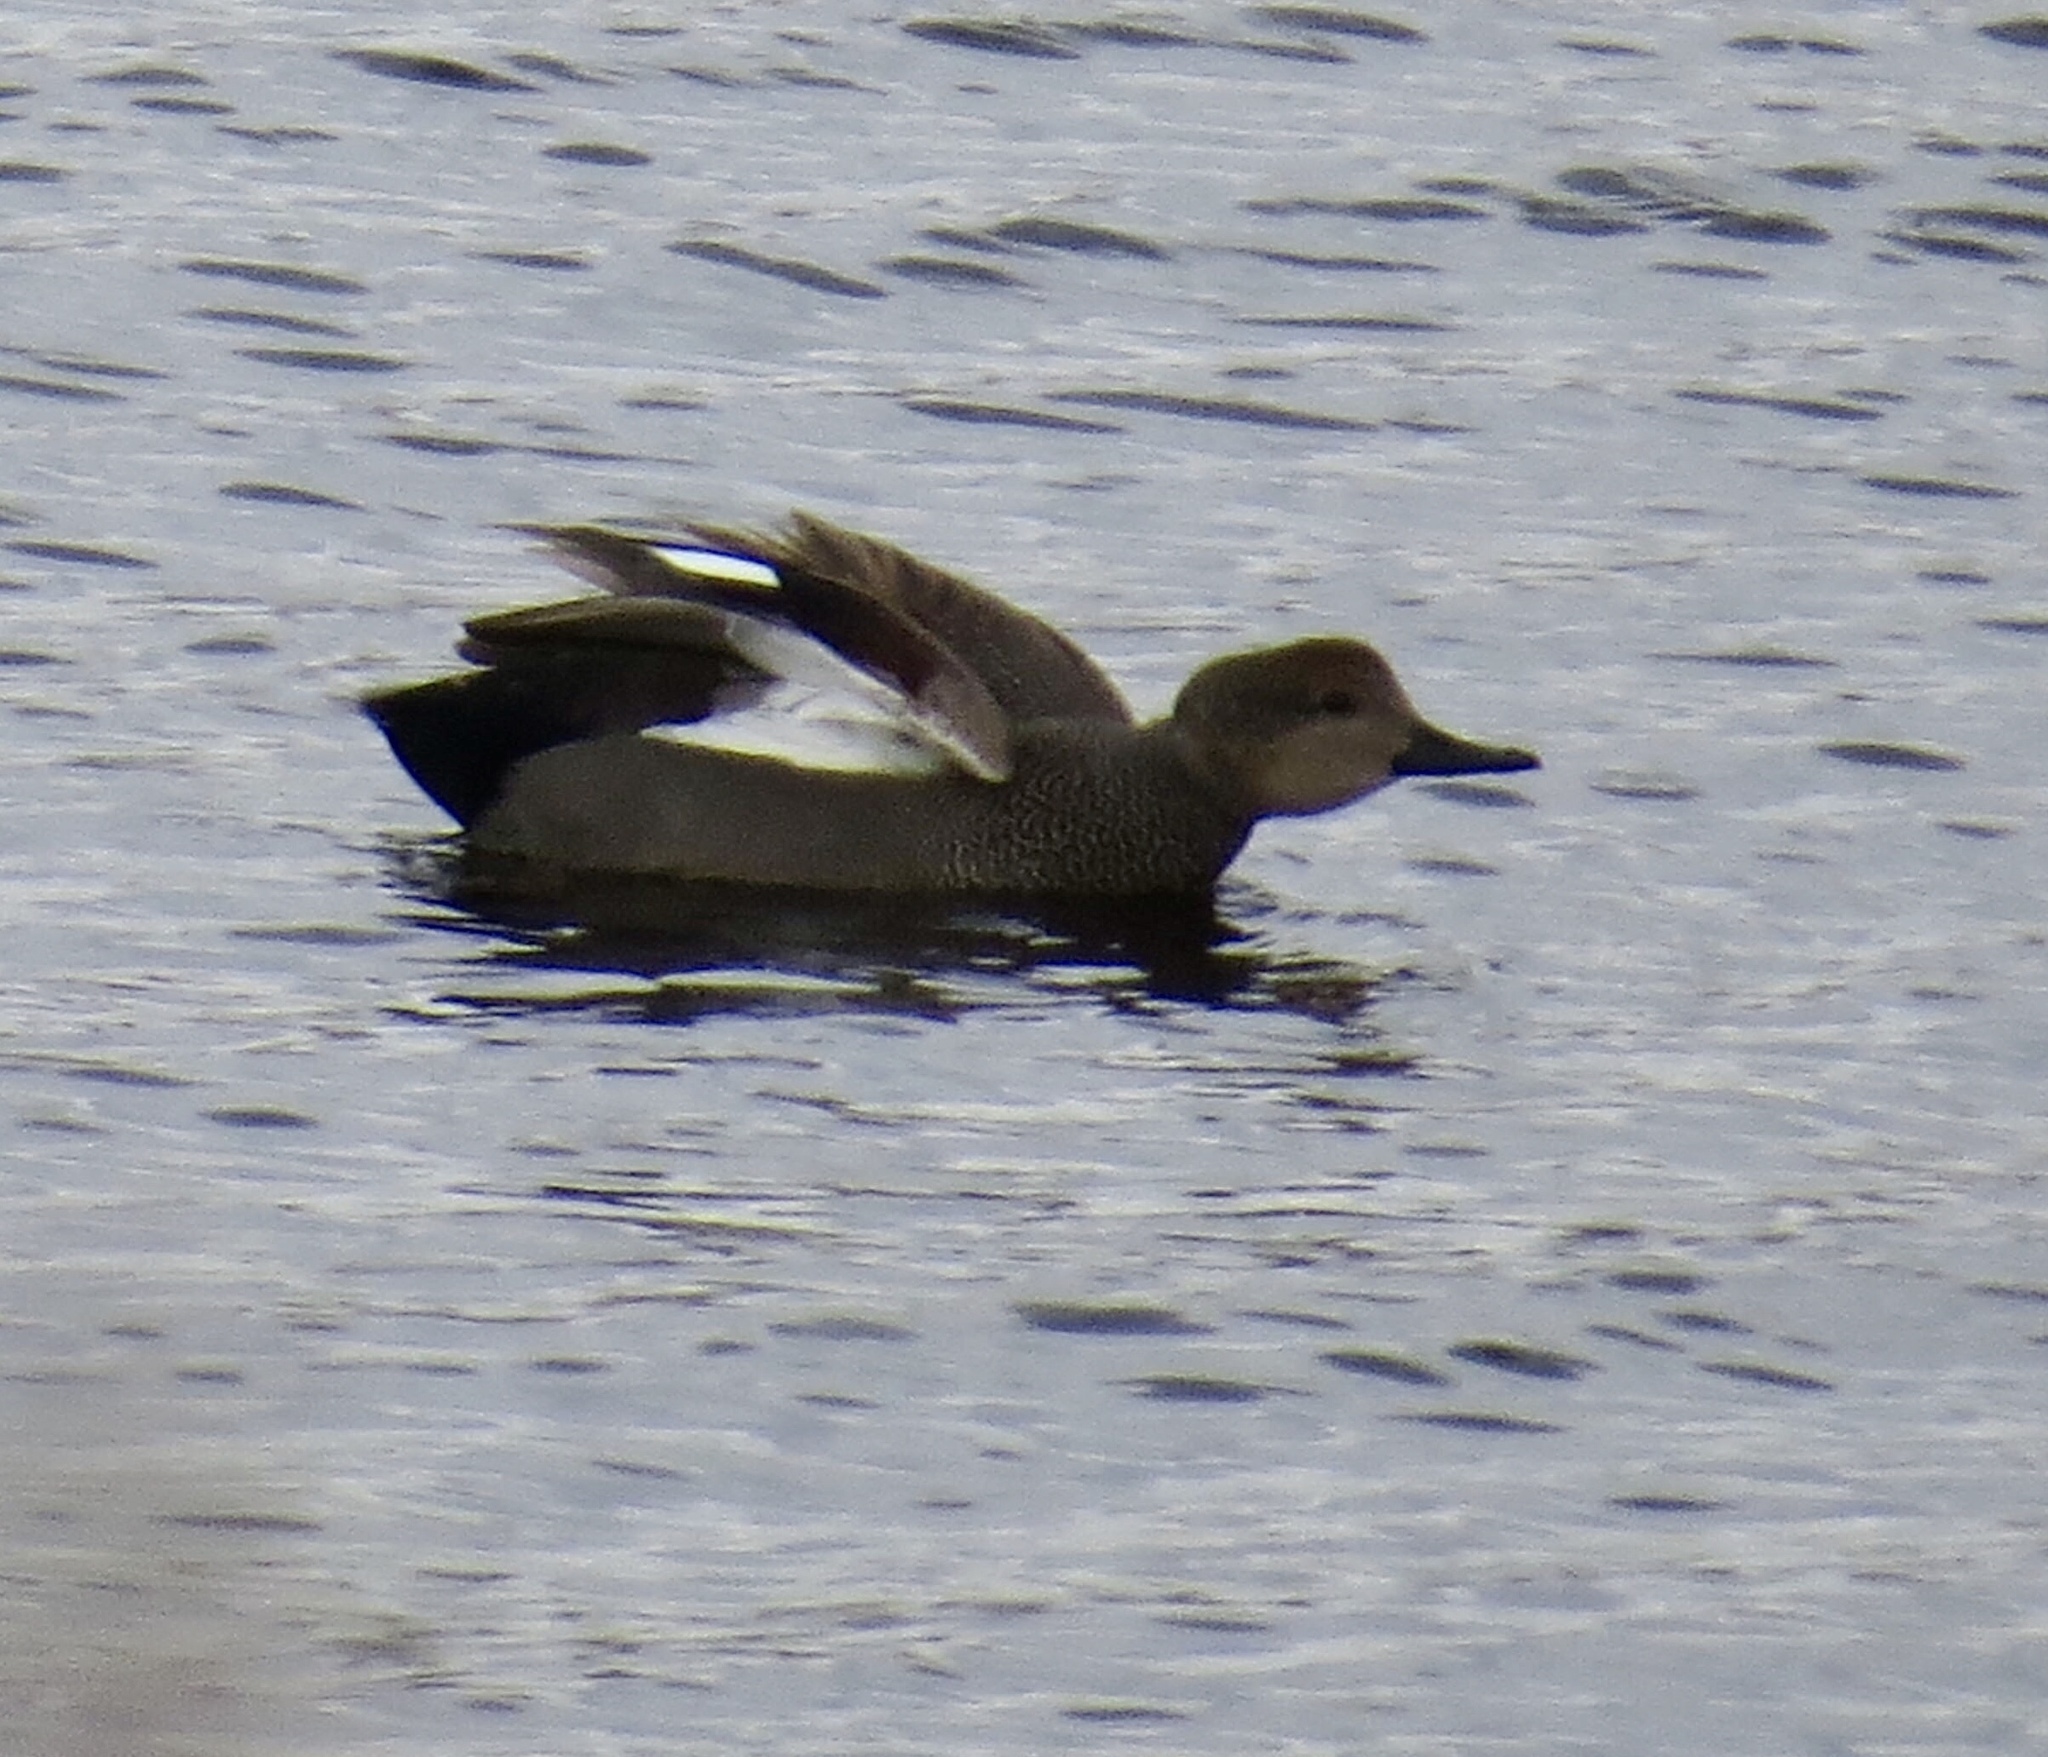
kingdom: Animalia
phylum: Chordata
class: Aves
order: Anseriformes
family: Anatidae
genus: Mareca
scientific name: Mareca strepera
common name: Gadwall
